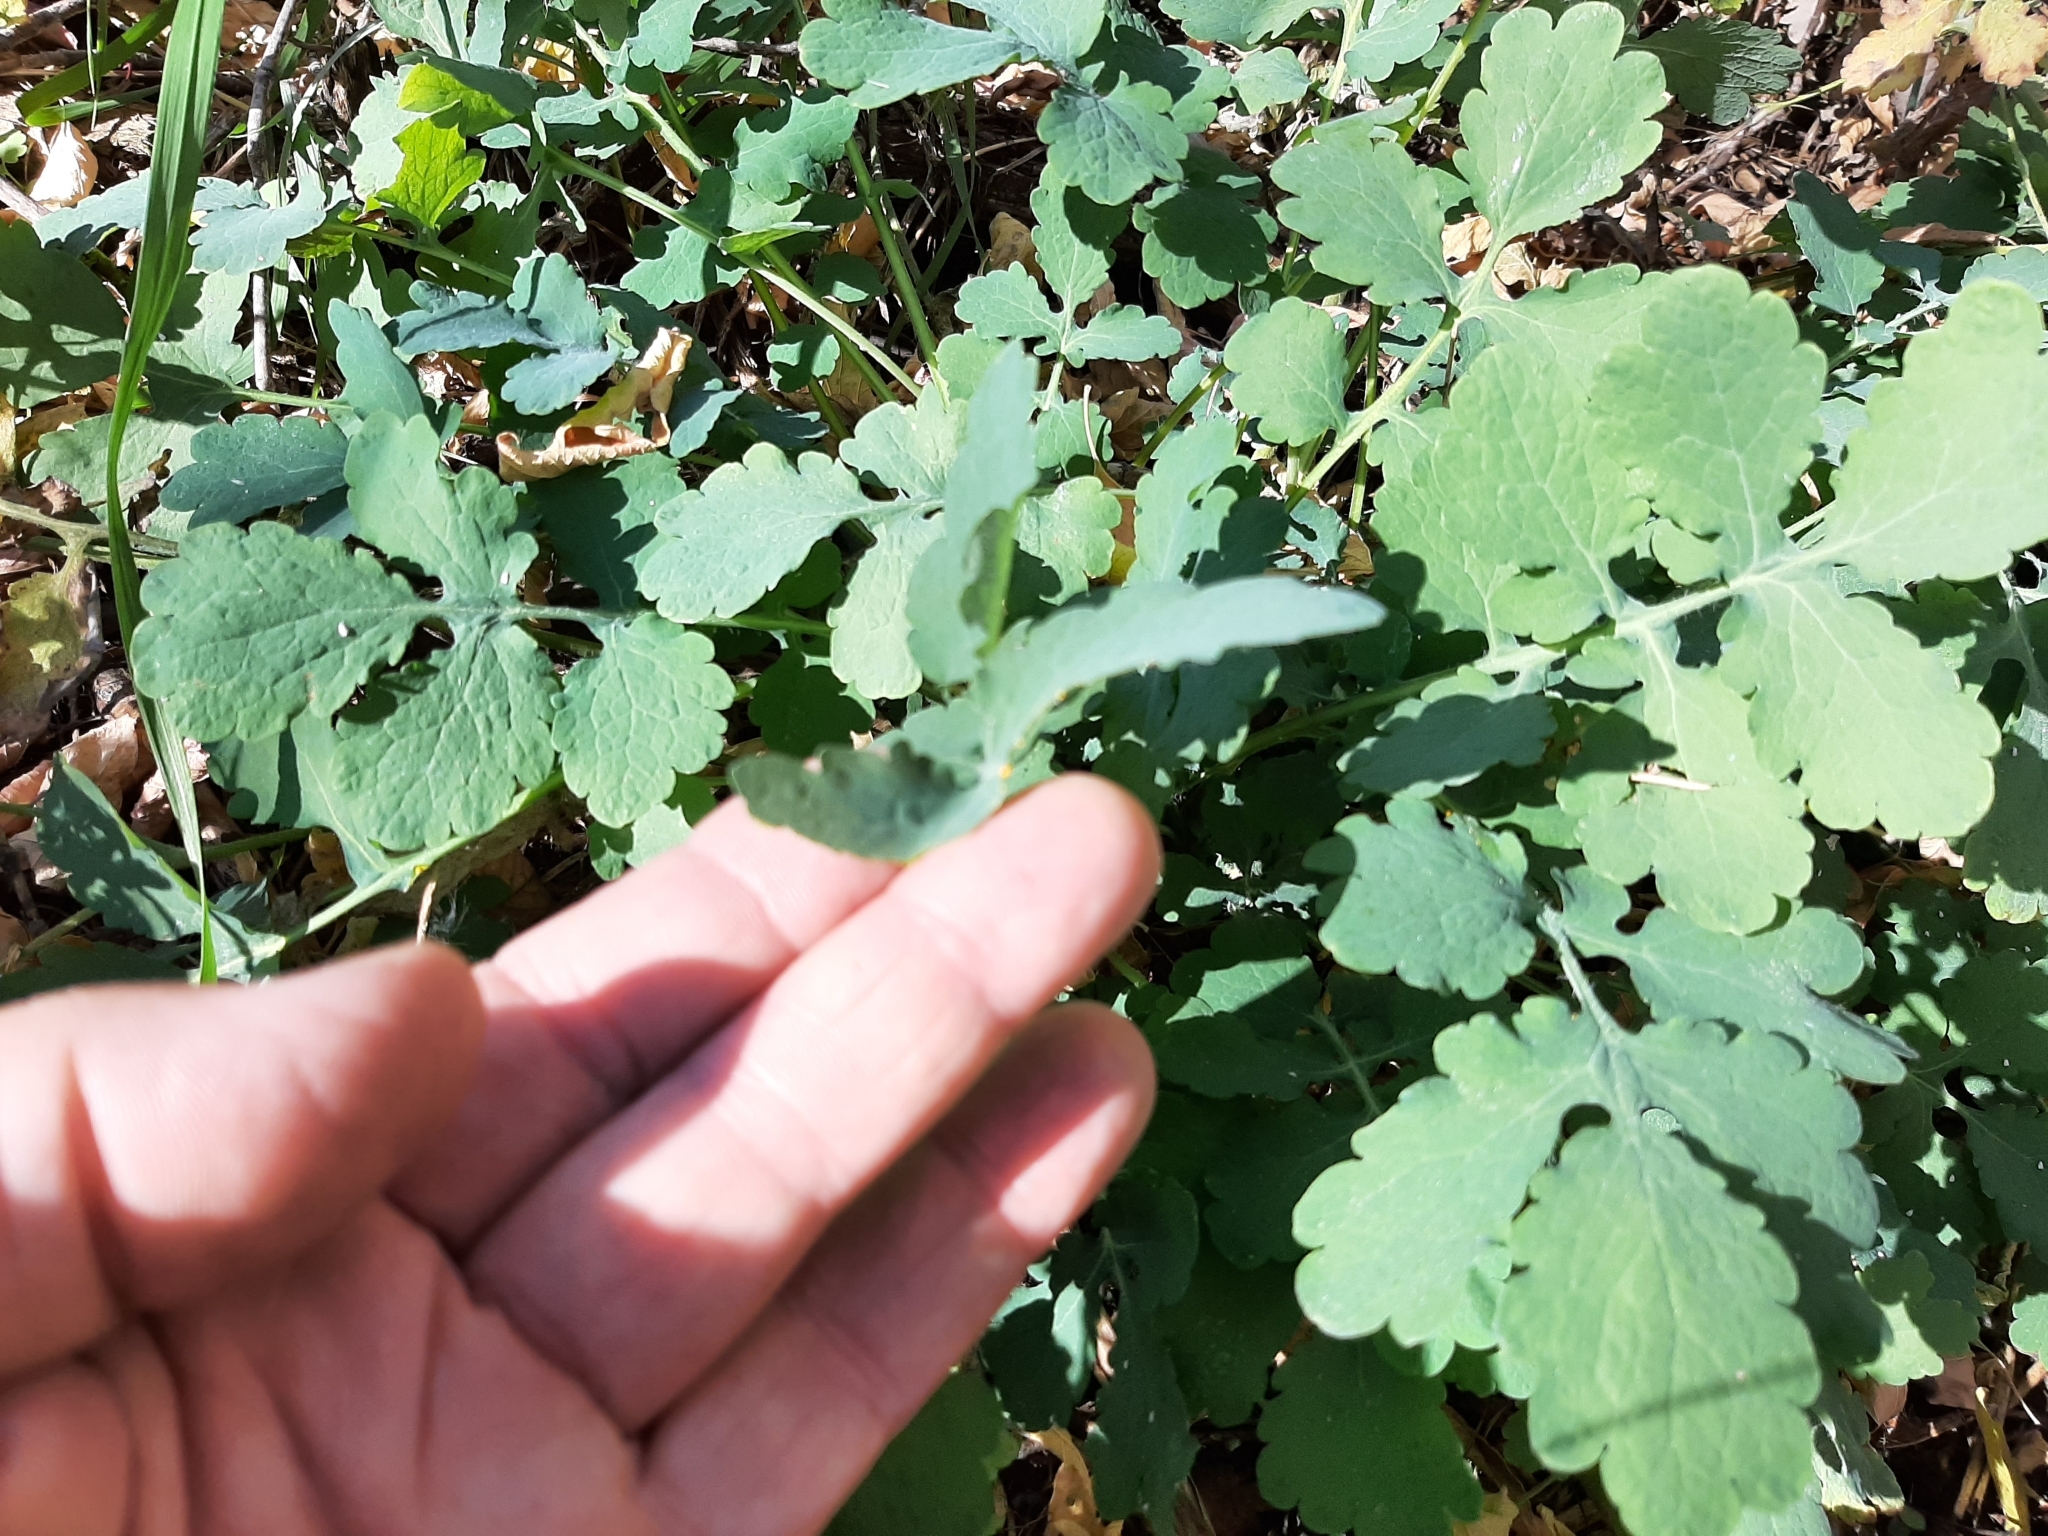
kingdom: Plantae
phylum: Tracheophyta
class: Magnoliopsida
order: Ranunculales
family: Papaveraceae
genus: Chelidonium
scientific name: Chelidonium majus
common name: Greater celandine
